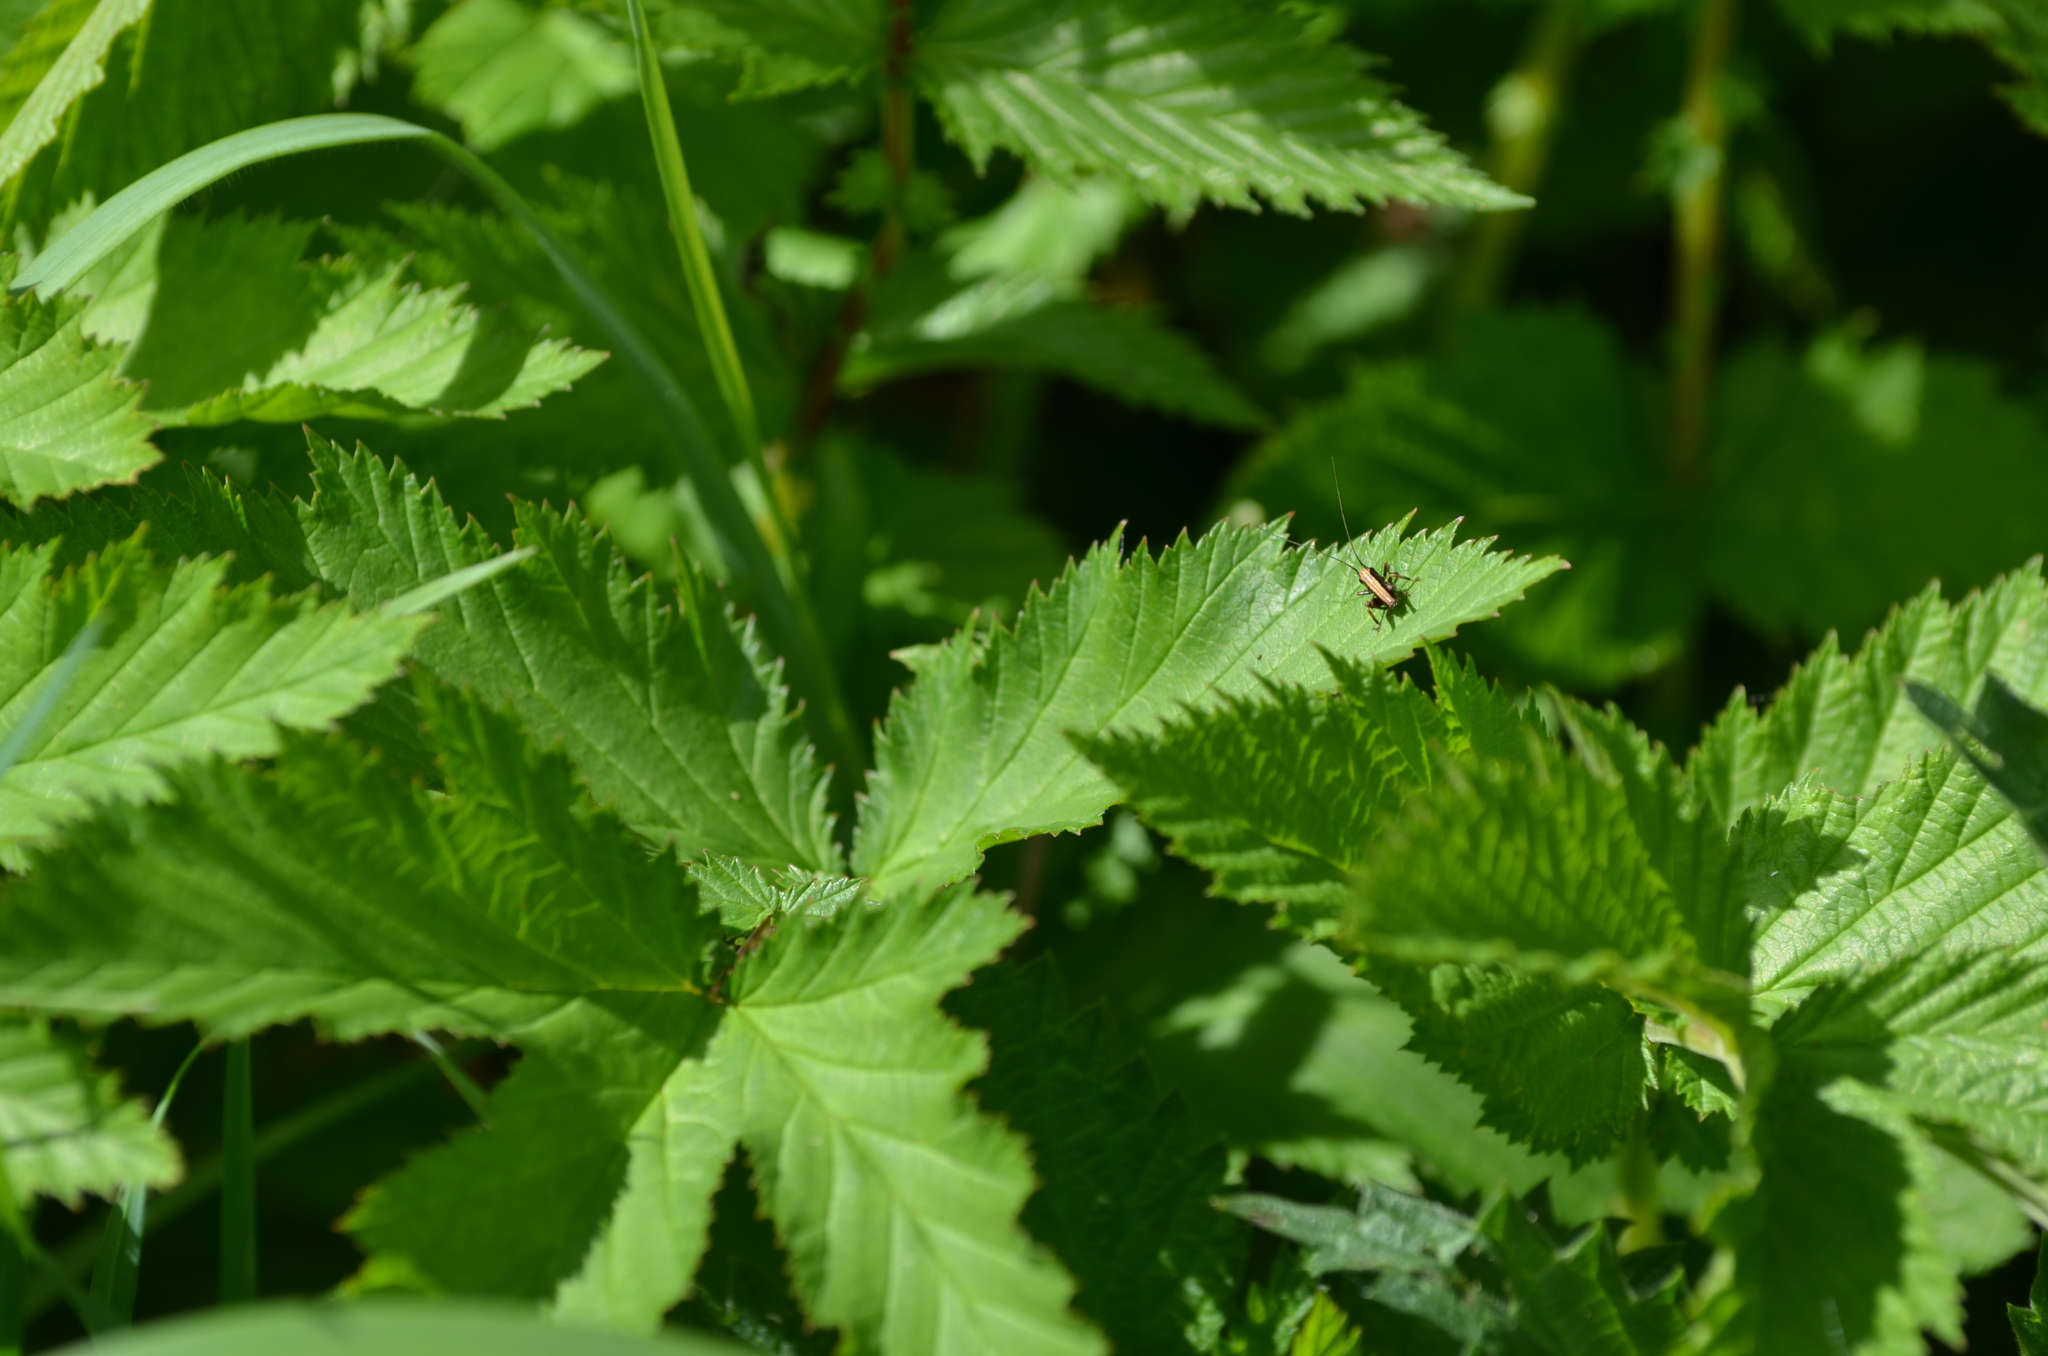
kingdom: Animalia
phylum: Arthropoda
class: Insecta
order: Orthoptera
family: Tettigoniidae
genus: Pholidoptera
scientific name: Pholidoptera griseoaptera
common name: Dark bush-cricket
